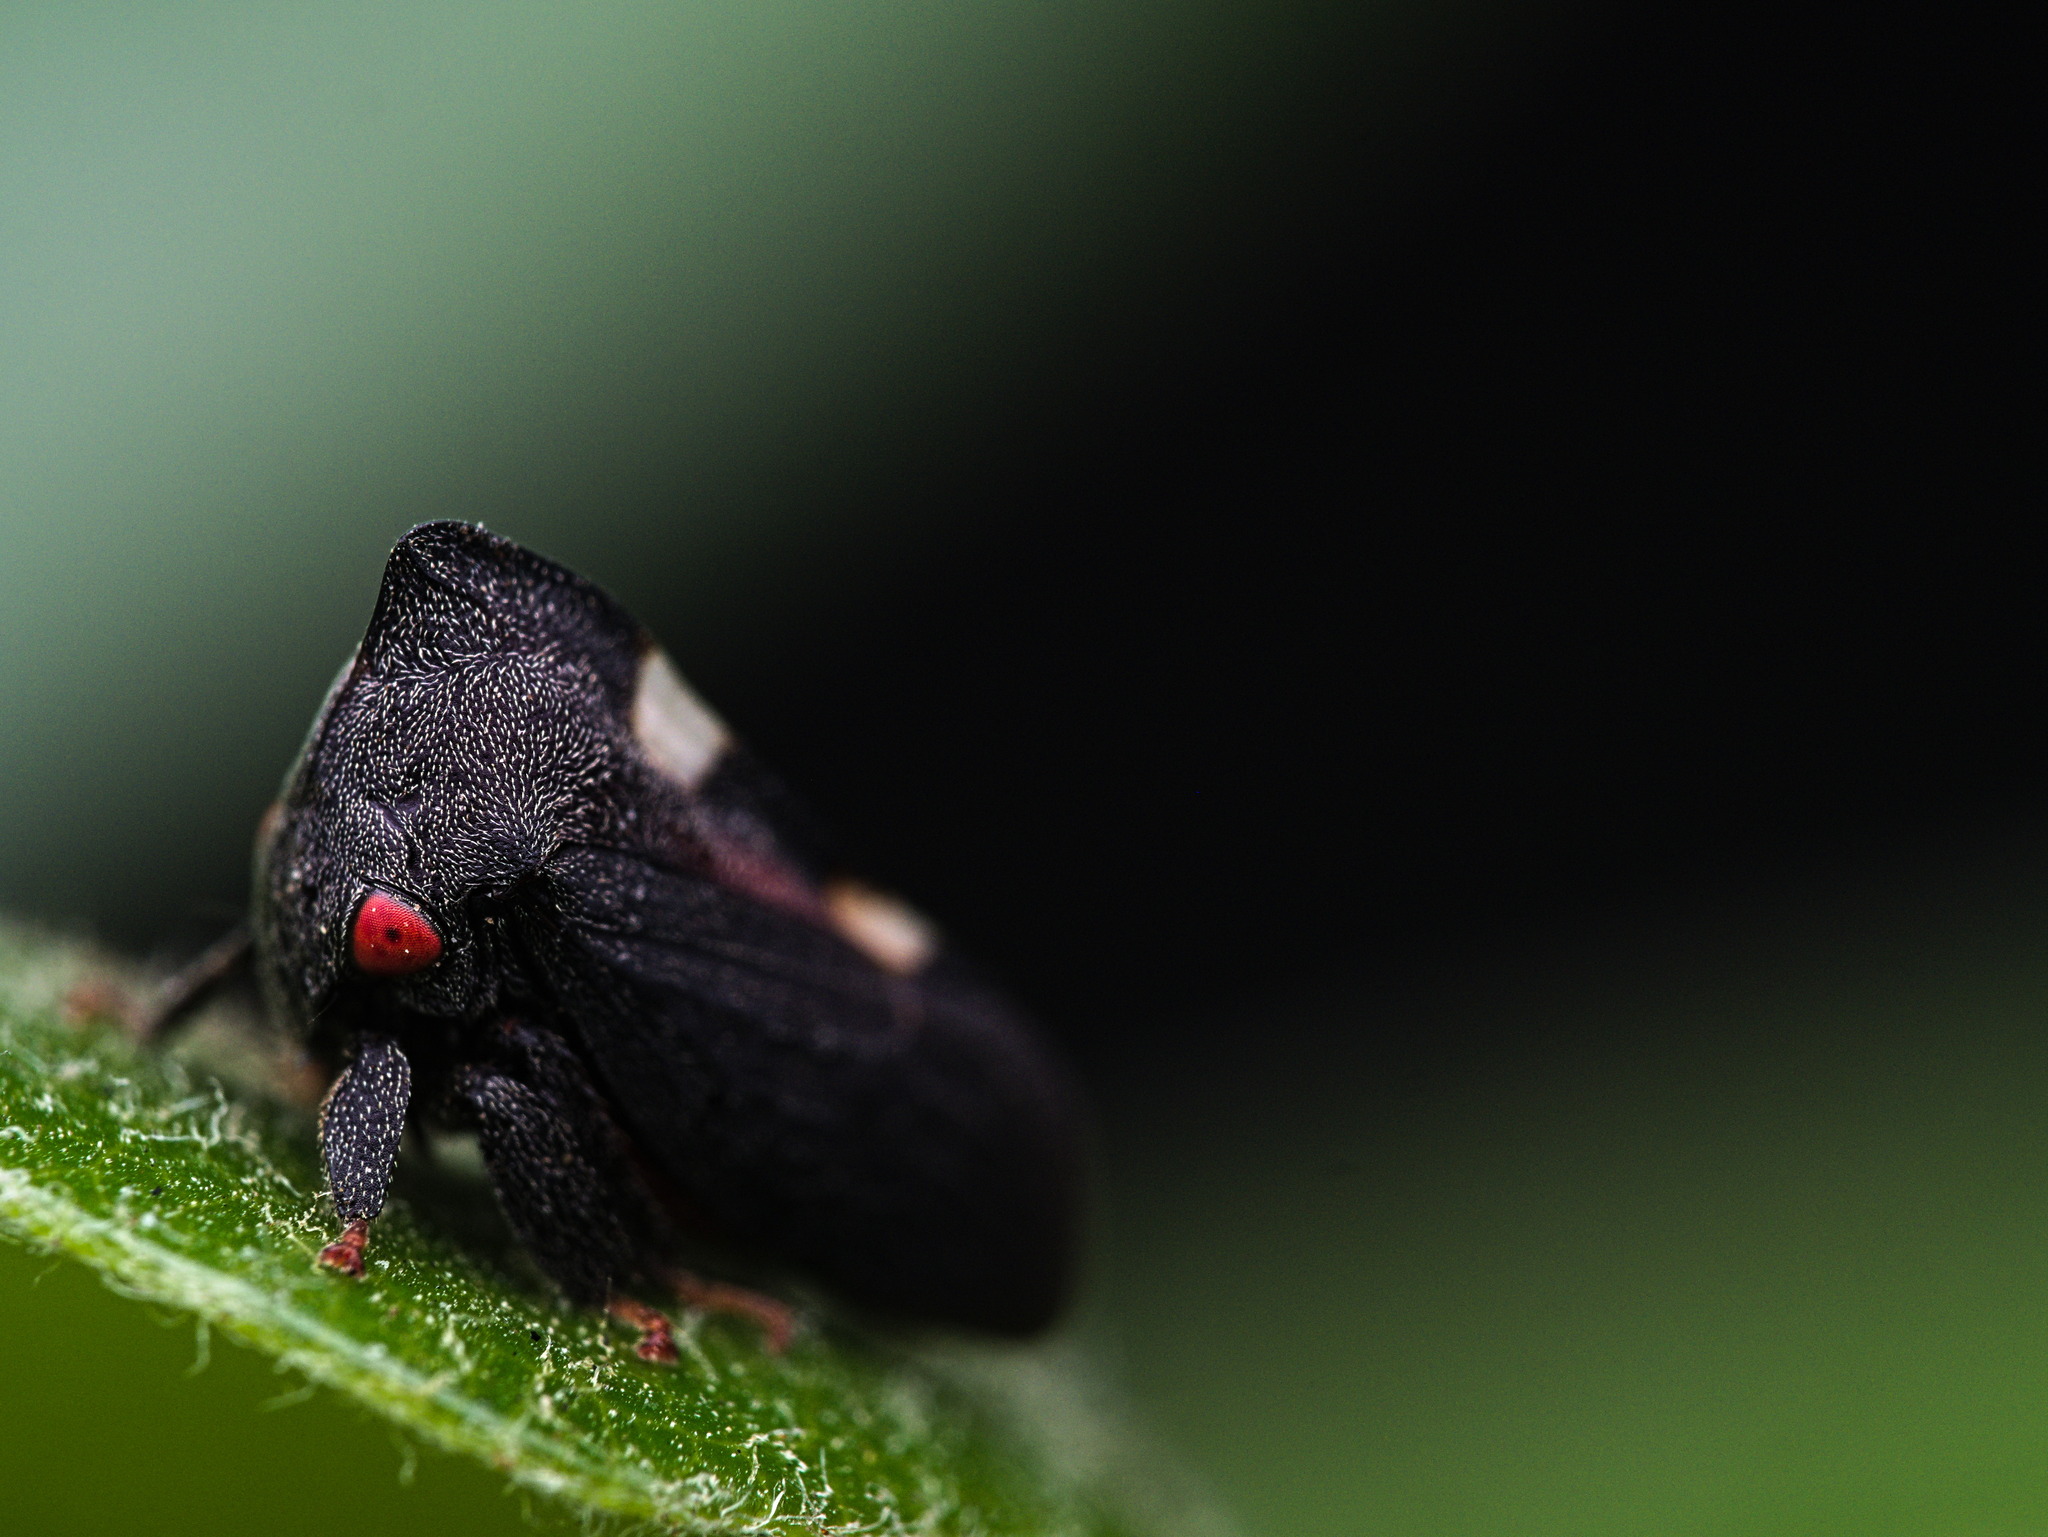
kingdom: Animalia
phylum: Arthropoda
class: Insecta
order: Hemiptera
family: Membracidae
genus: Enchenopa
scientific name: Enchenopa quadricolor
